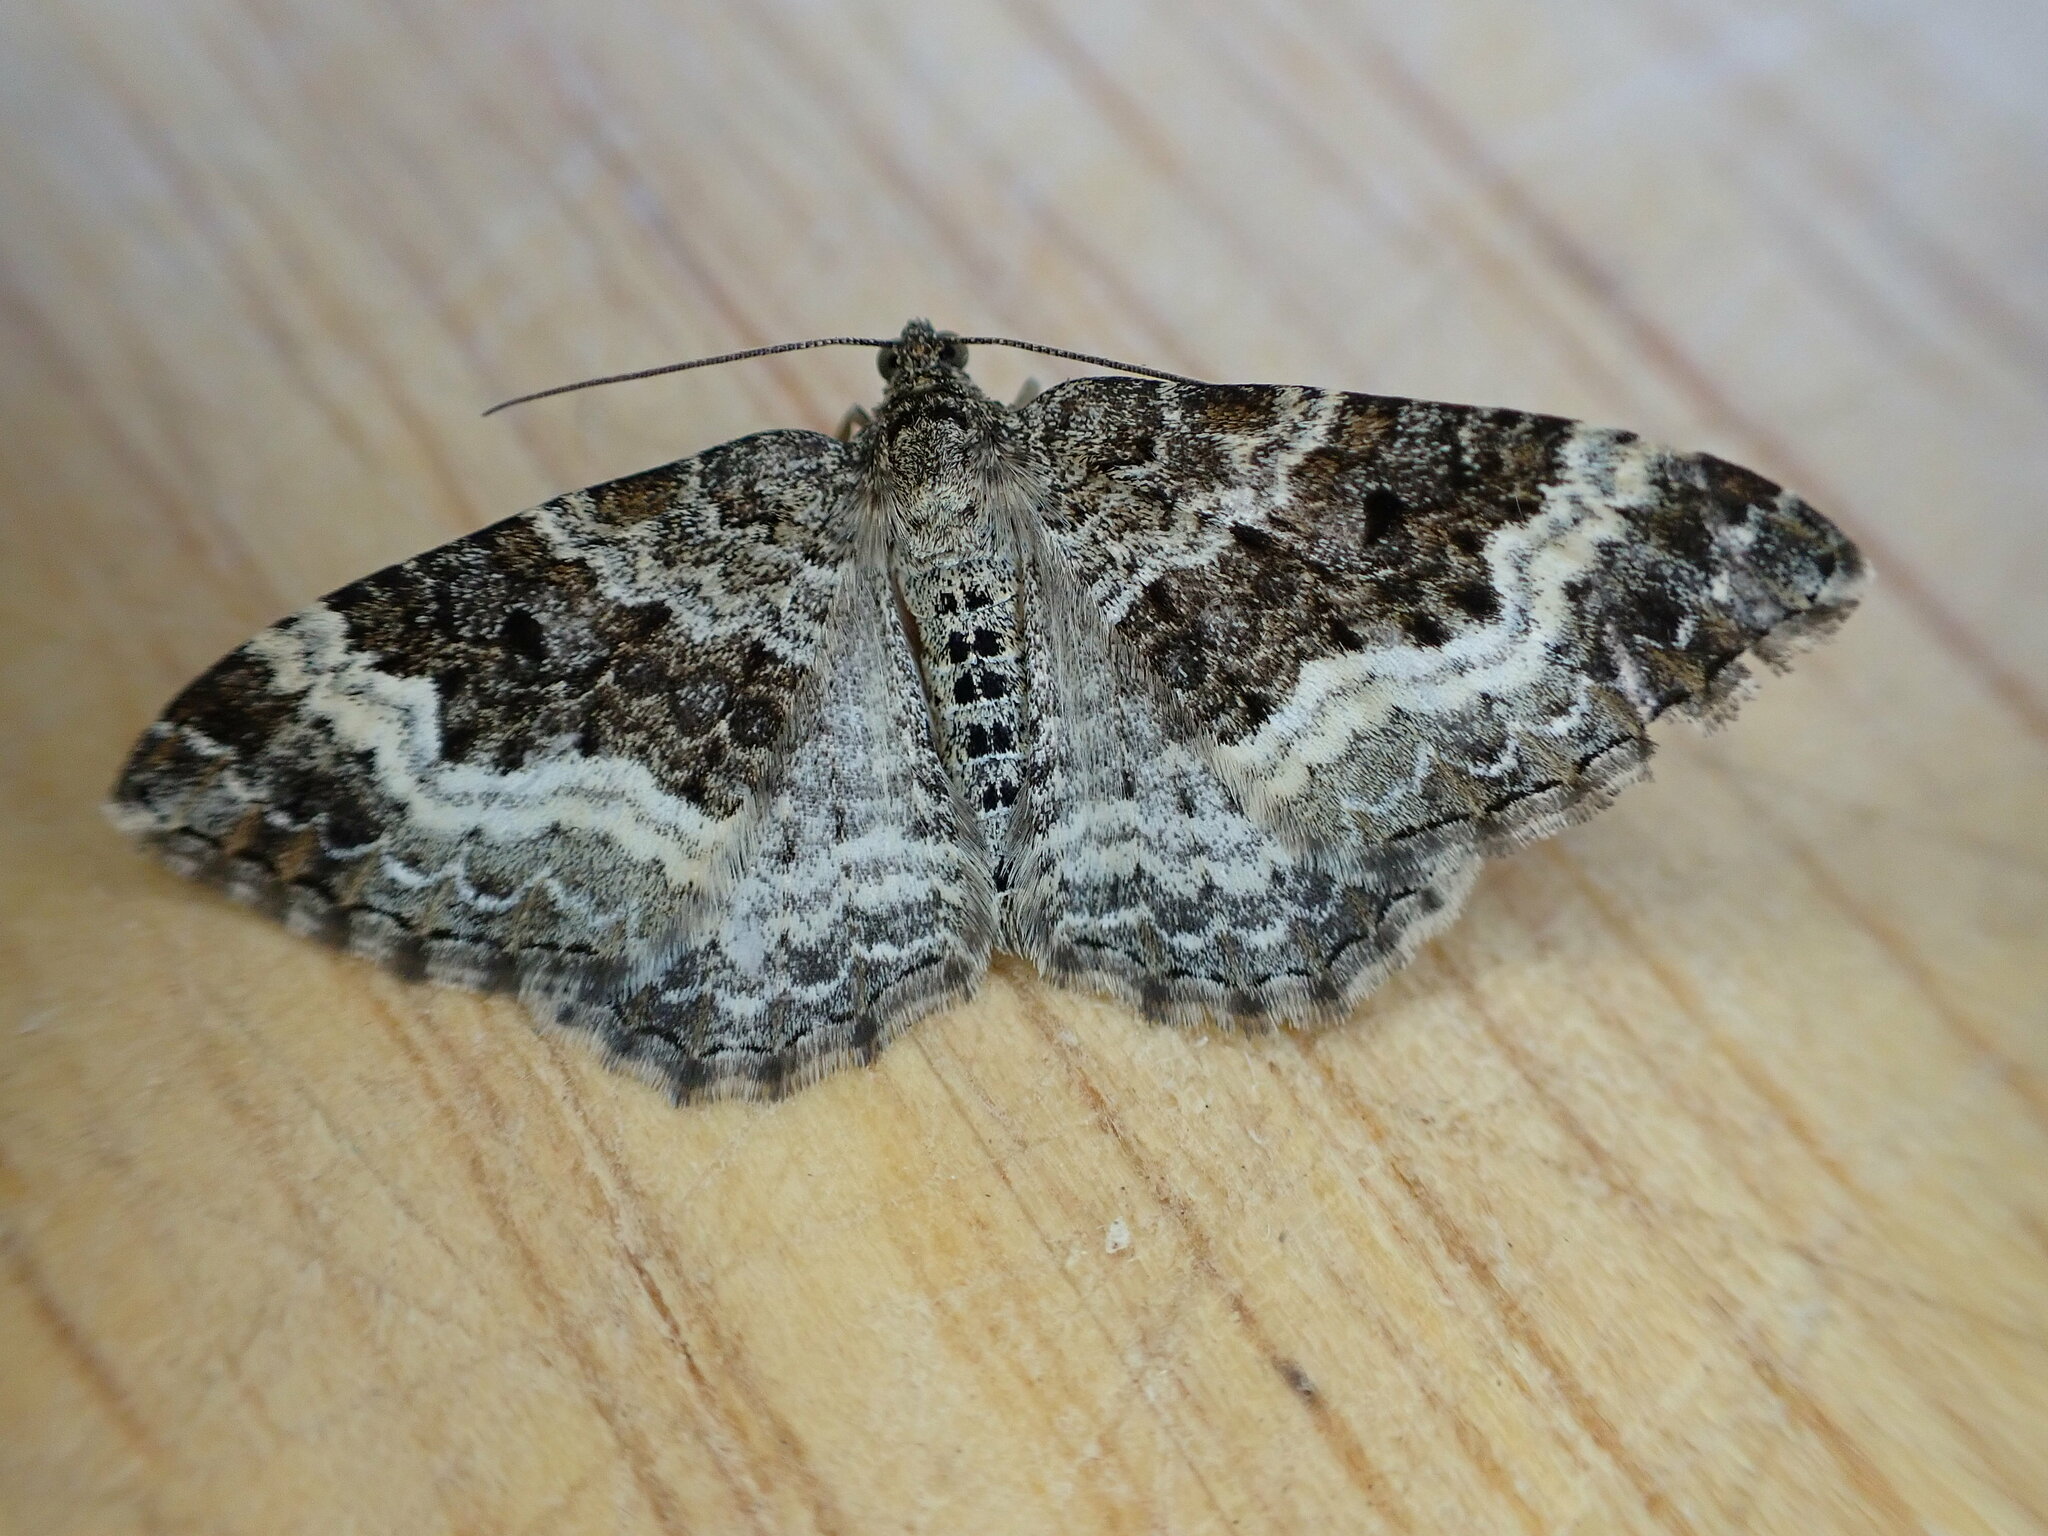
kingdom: Animalia
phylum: Arthropoda
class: Insecta
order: Lepidoptera
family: Geometridae
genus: Epirrhoe
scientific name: Epirrhoe alternata
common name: Common carpet
